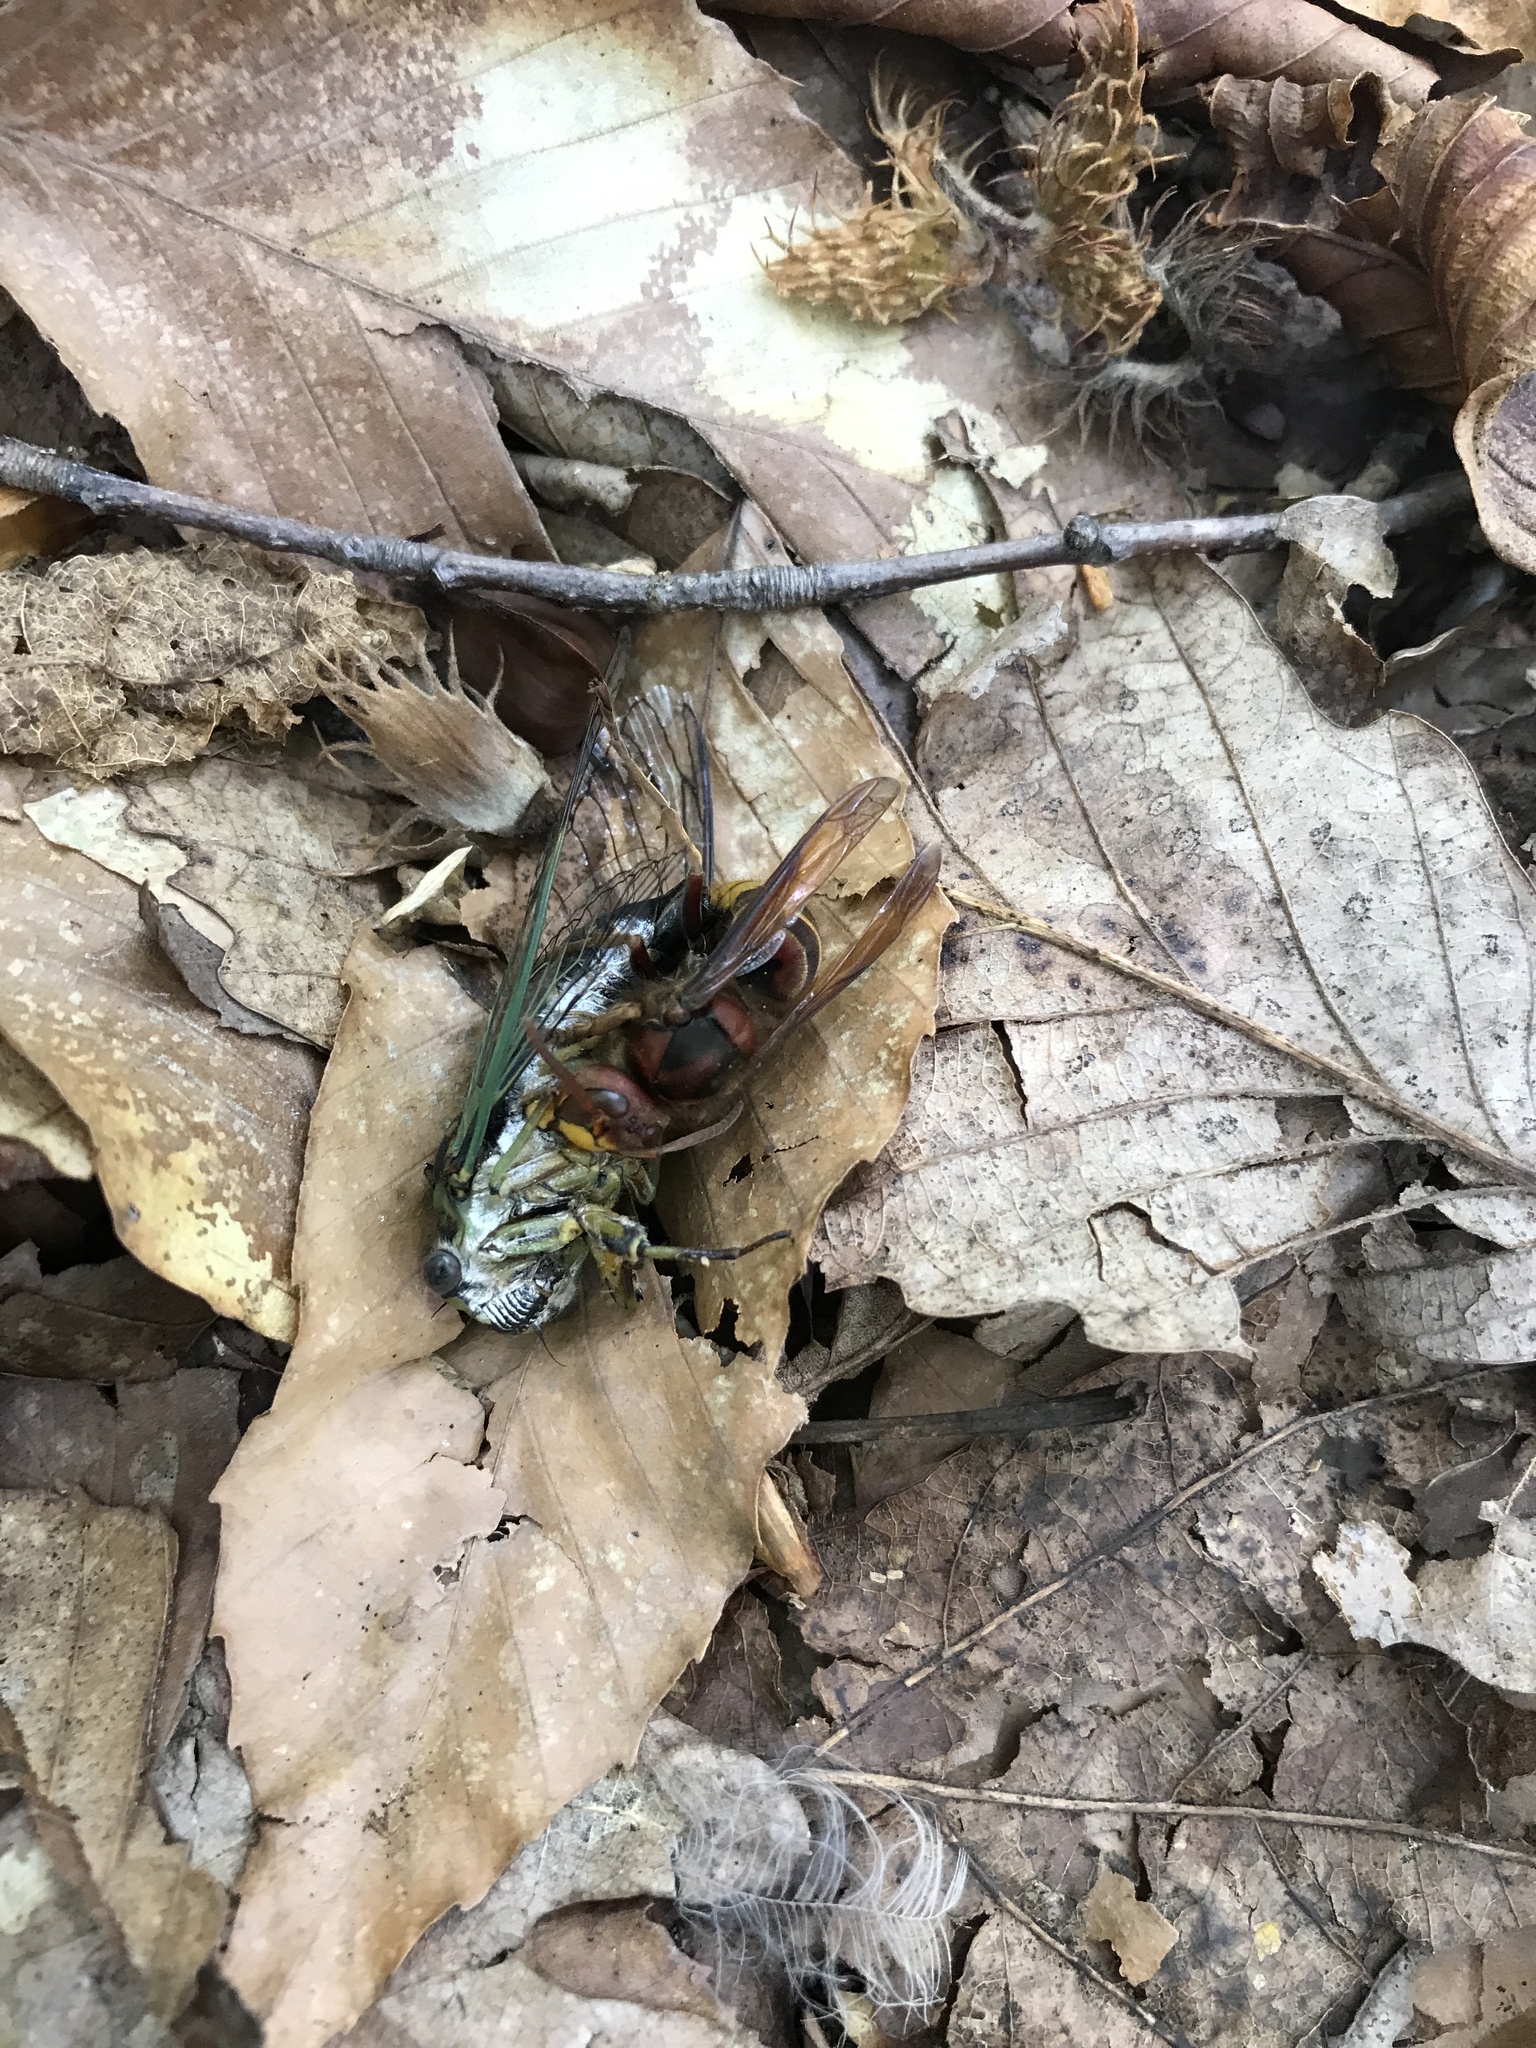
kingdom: Animalia
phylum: Arthropoda
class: Insecta
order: Hymenoptera
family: Vespidae
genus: Vespa
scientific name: Vespa crabro
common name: Hornet
